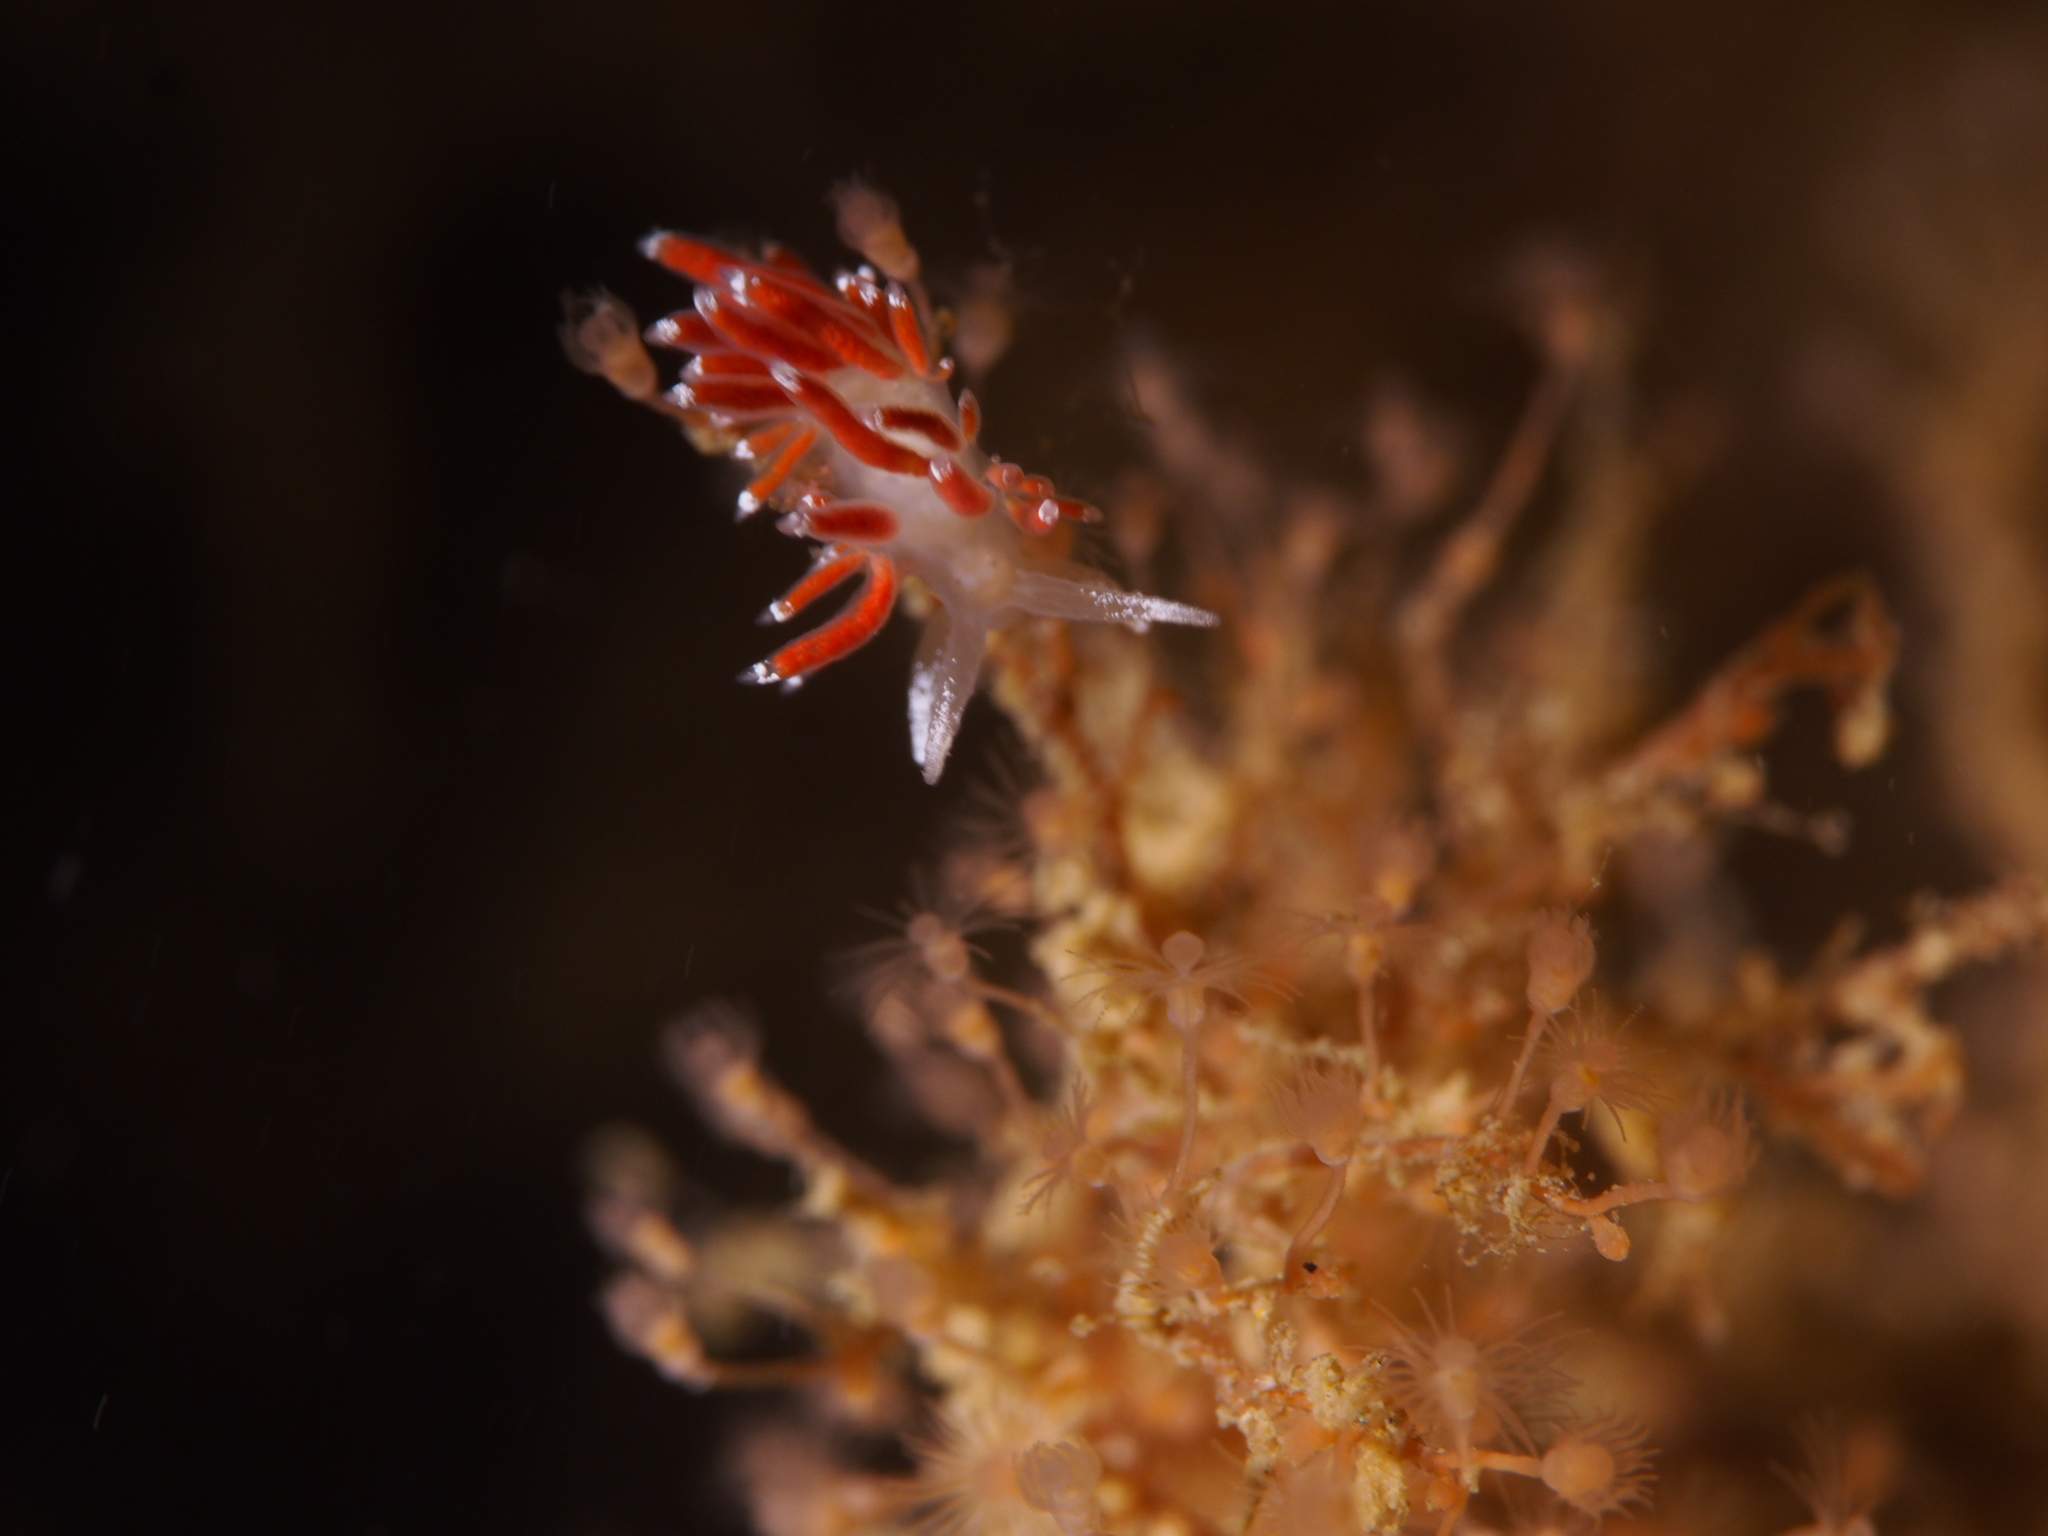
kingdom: Animalia
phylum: Mollusca
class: Gastropoda
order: Nudibranchia
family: Coryphellidae
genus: Coryphella
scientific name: Coryphella gracilis
